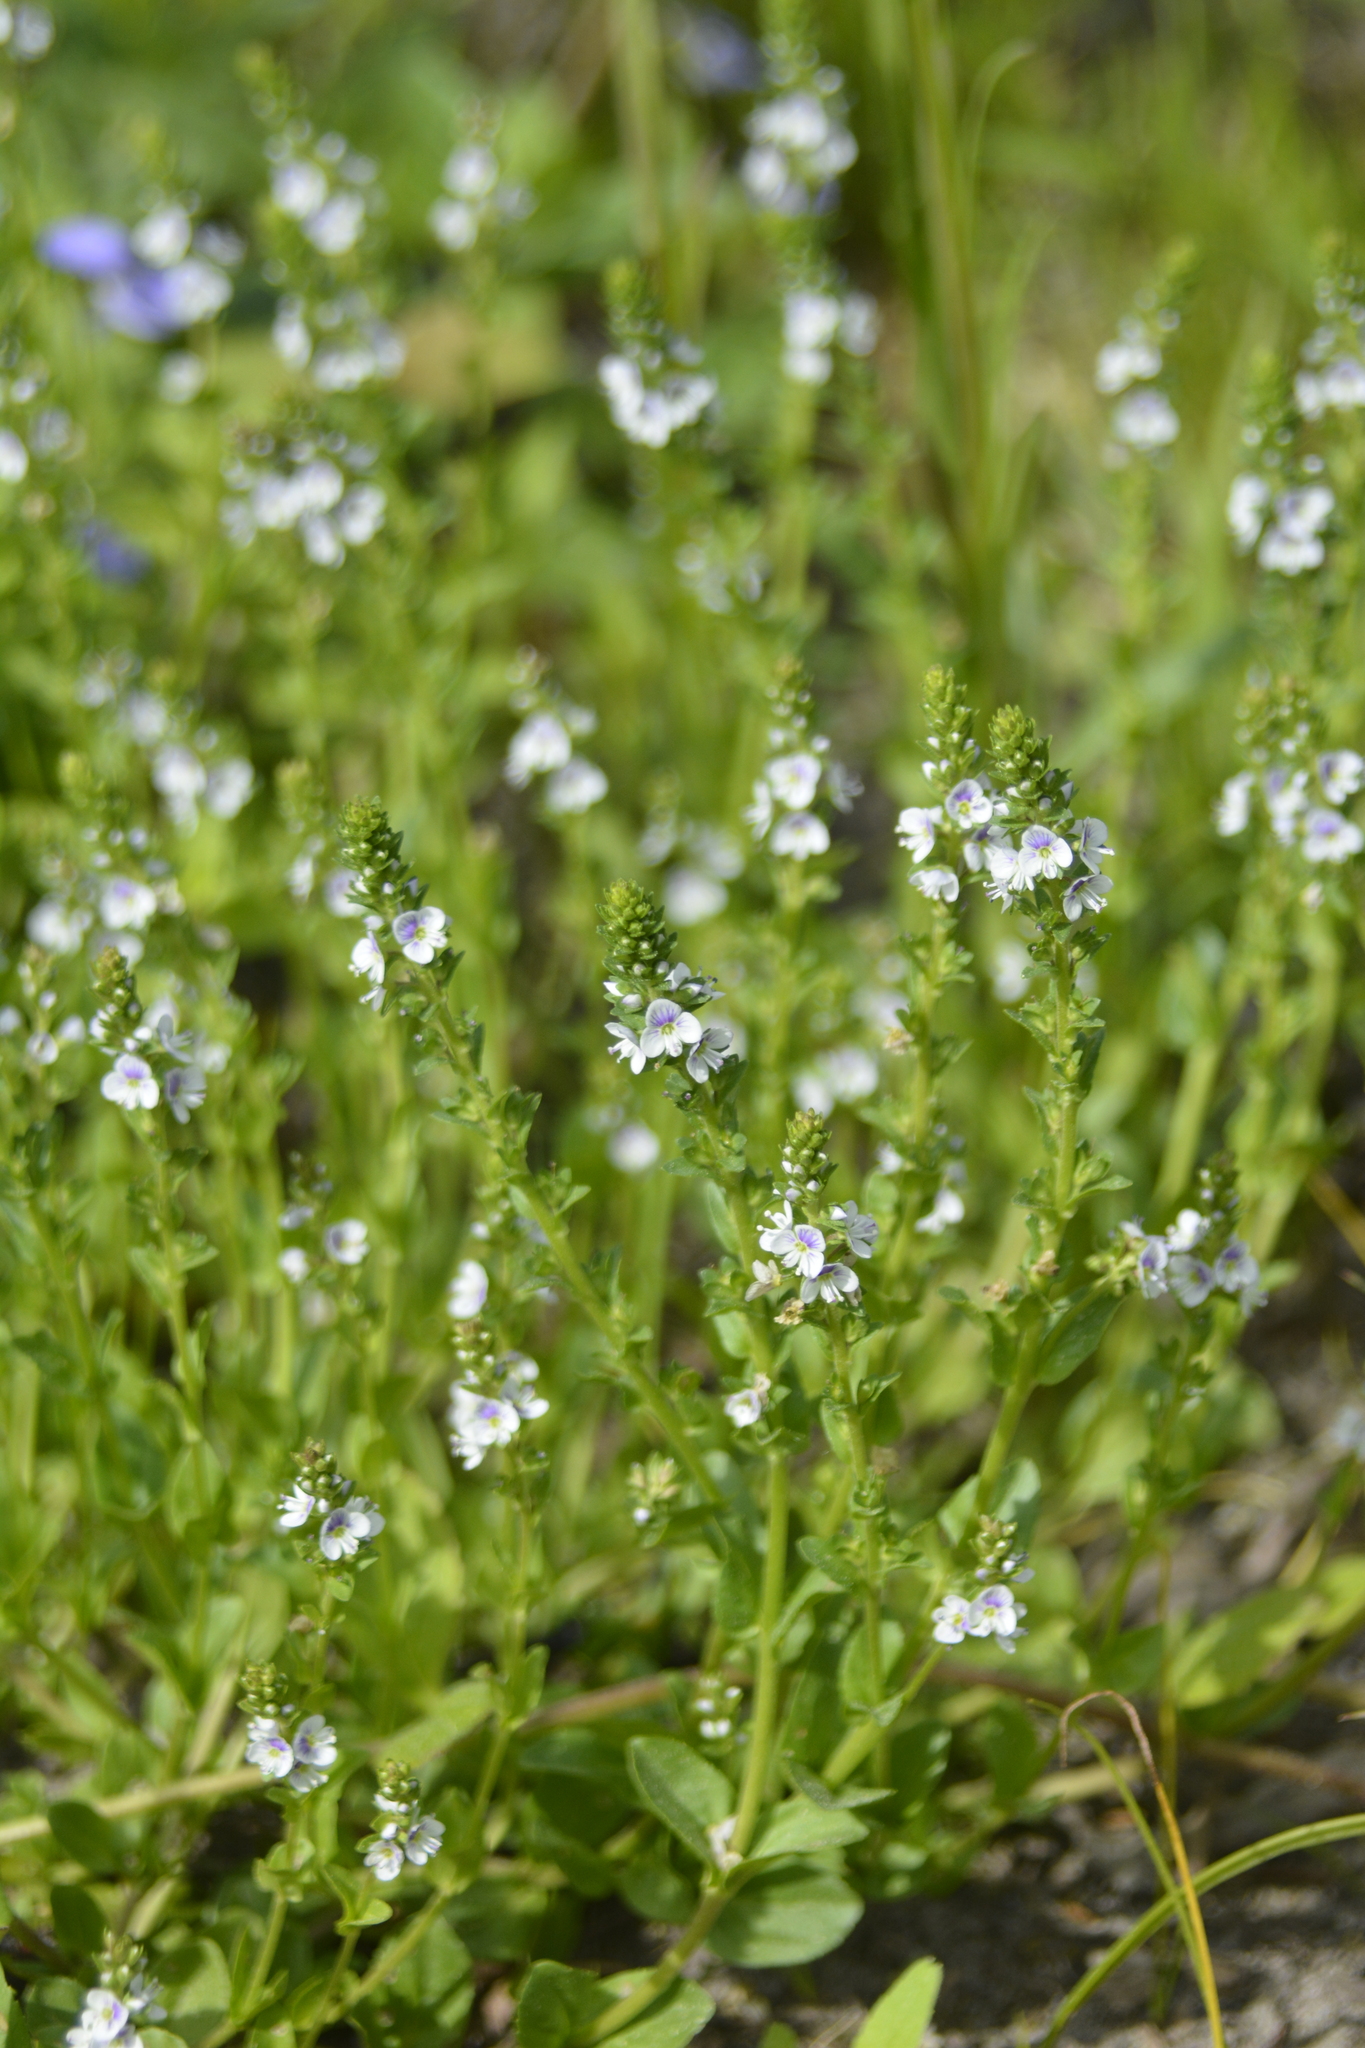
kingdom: Plantae
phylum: Tracheophyta
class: Magnoliopsida
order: Lamiales
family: Plantaginaceae
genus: Veronica
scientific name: Veronica serpyllifolia
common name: Thyme-leaved speedwell
